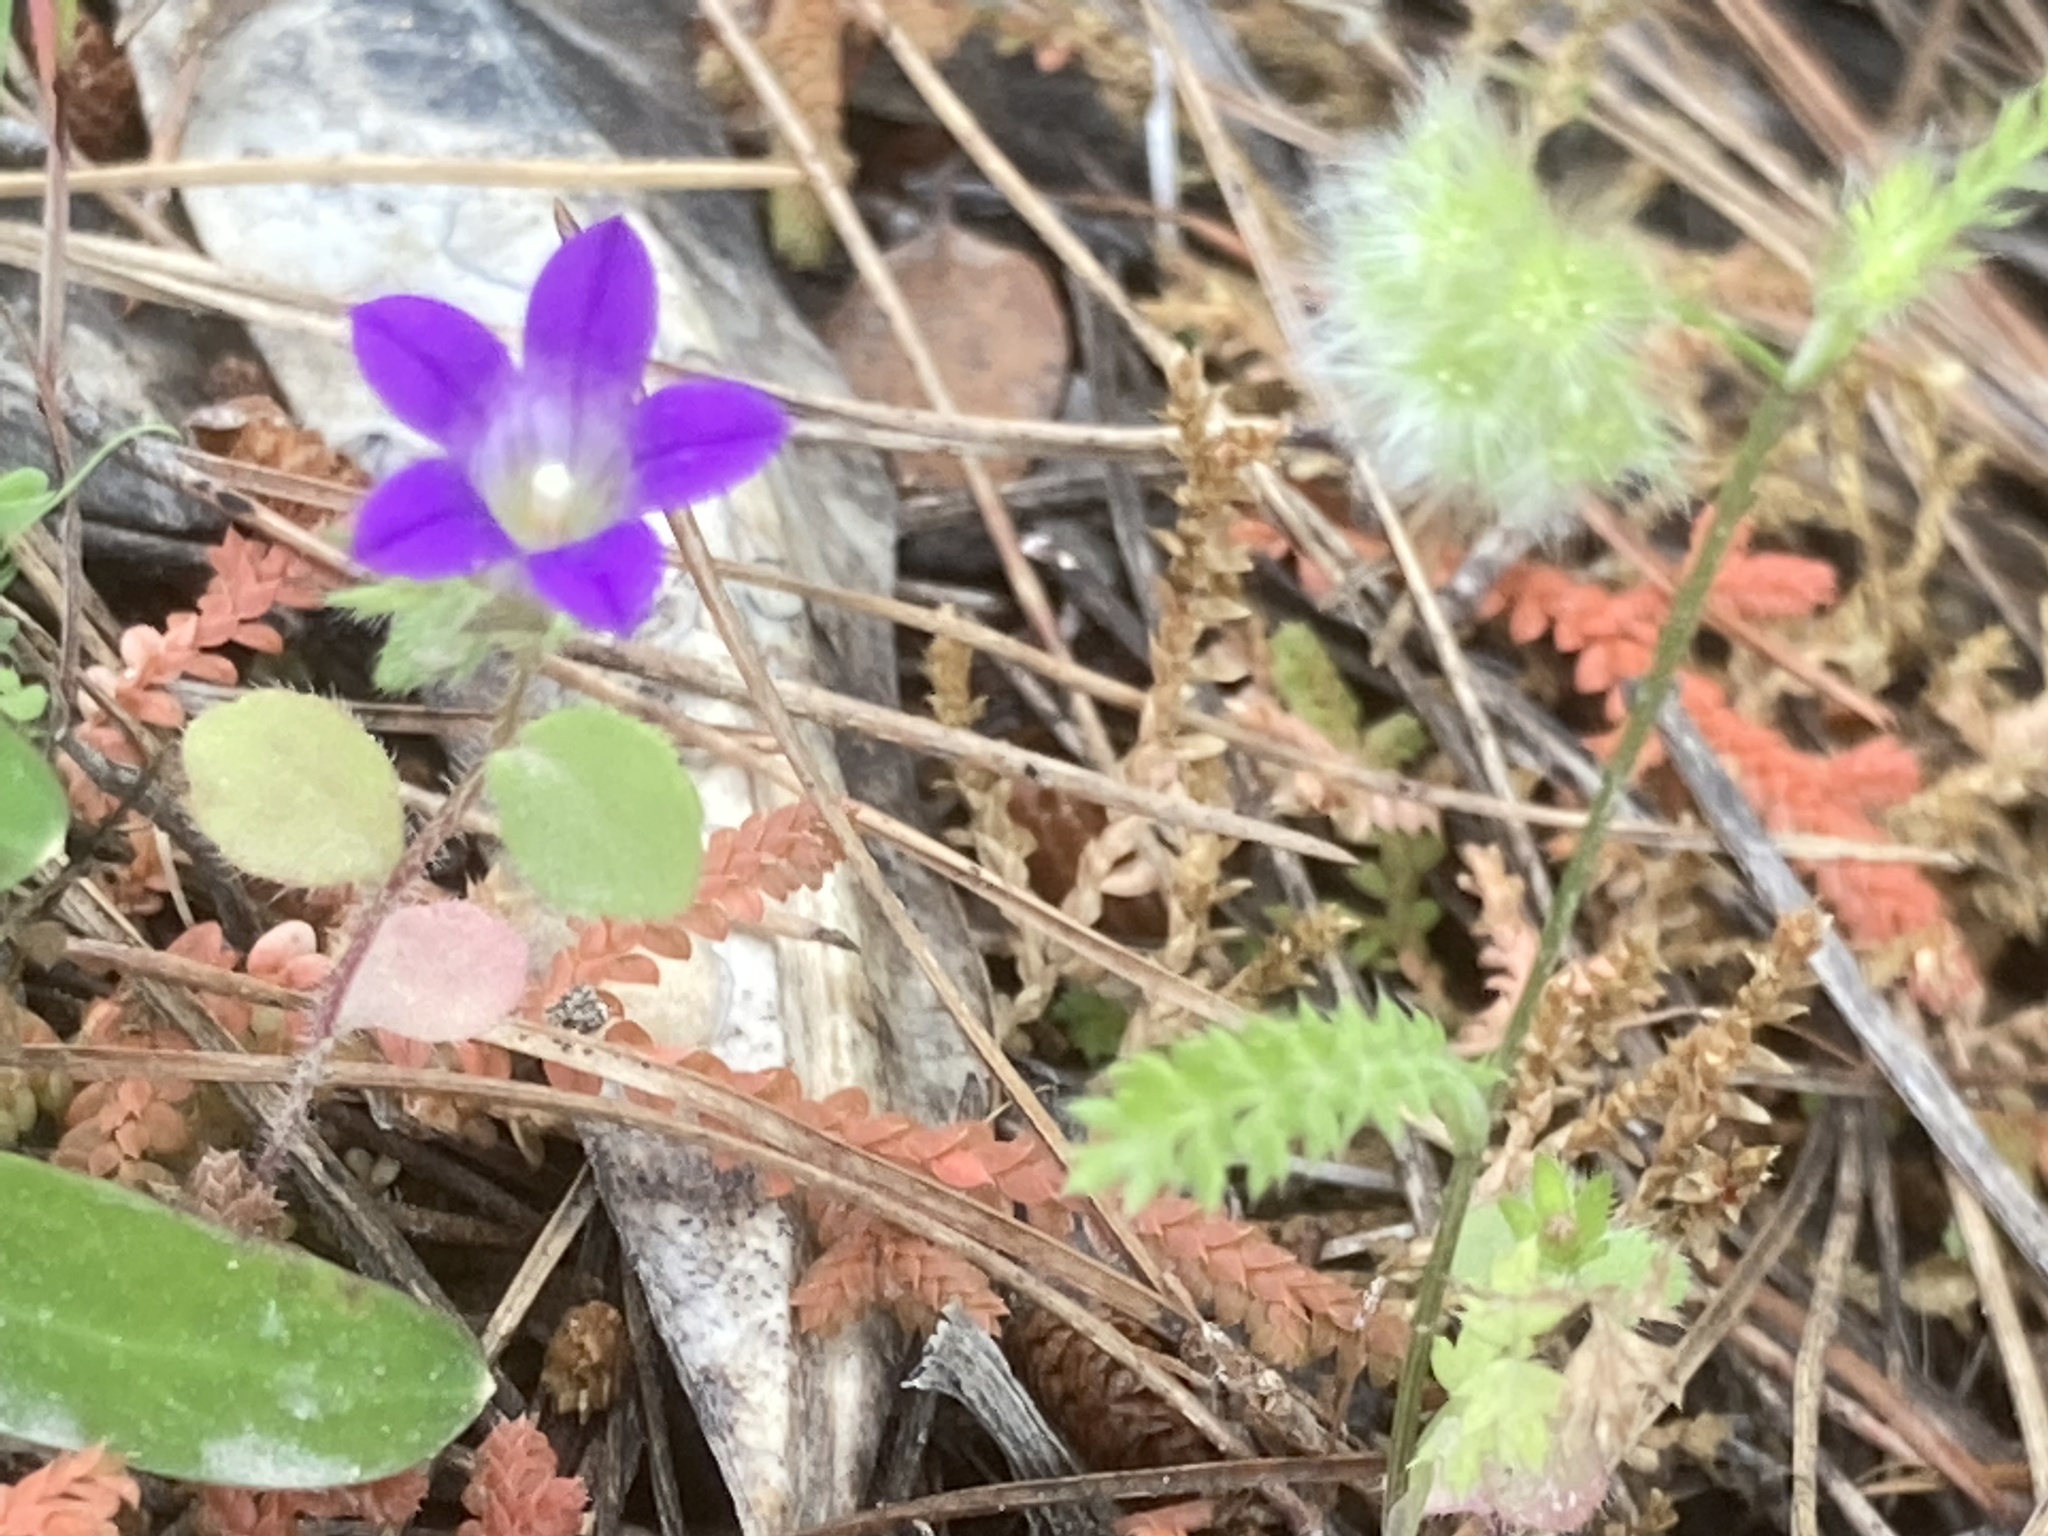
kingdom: Plantae
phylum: Tracheophyta
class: Magnoliopsida
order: Asterales
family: Campanulaceae
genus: Campanula
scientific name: Campanula rhodensis
